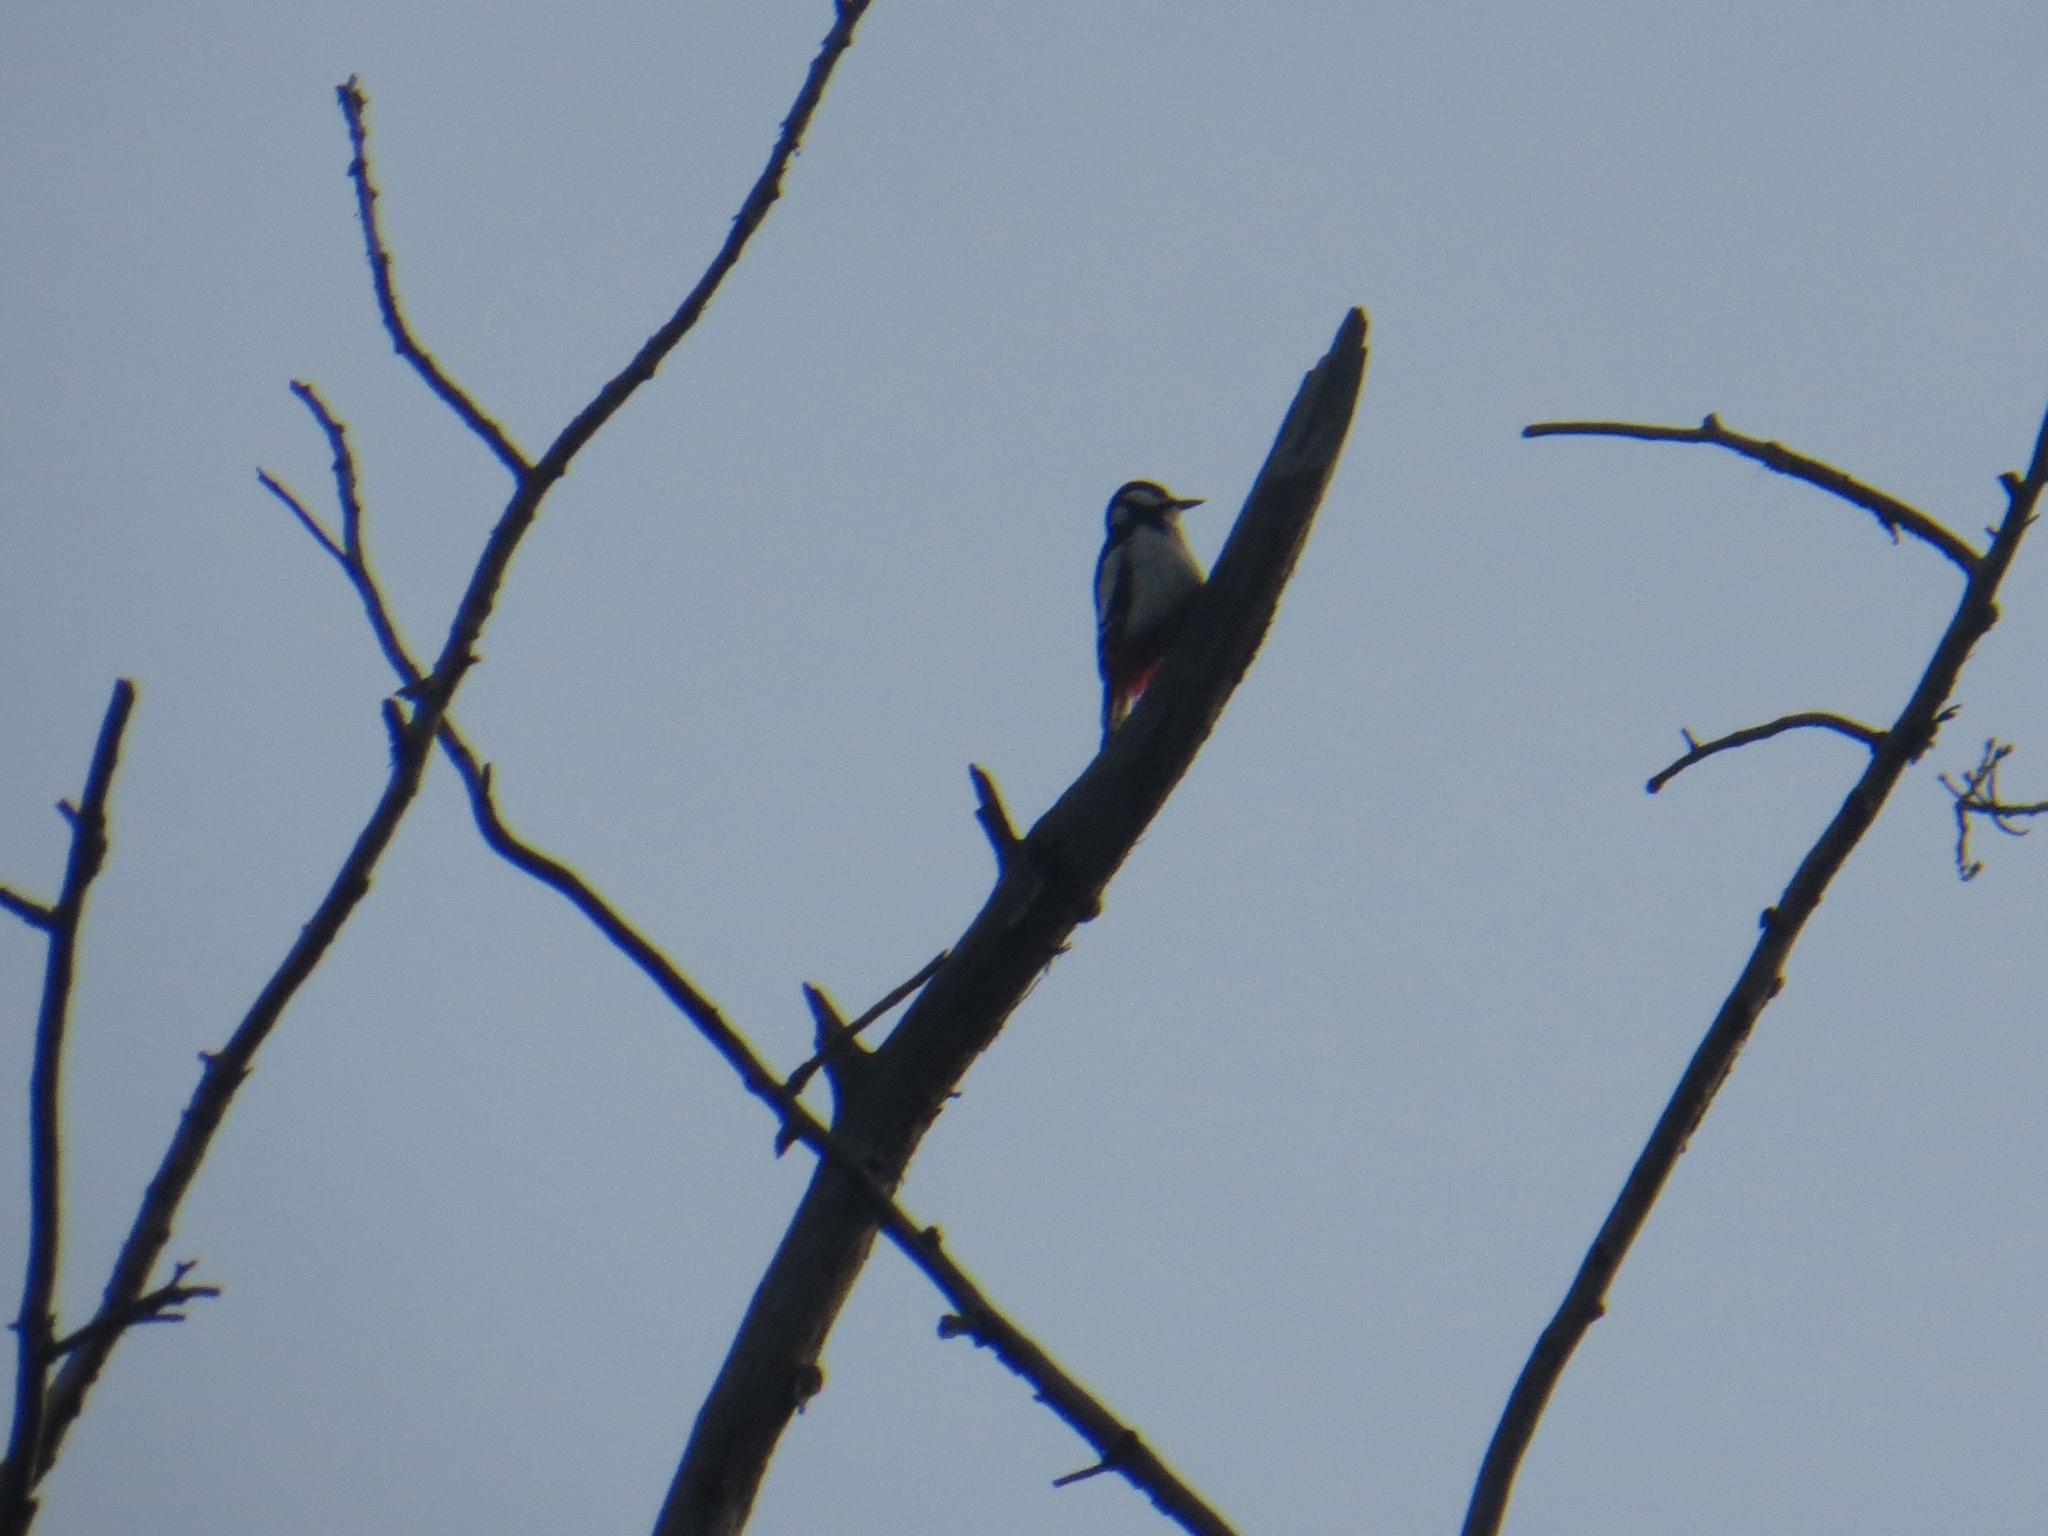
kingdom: Animalia
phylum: Chordata
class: Aves
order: Piciformes
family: Picidae
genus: Dendrocopos
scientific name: Dendrocopos major
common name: Great spotted woodpecker
